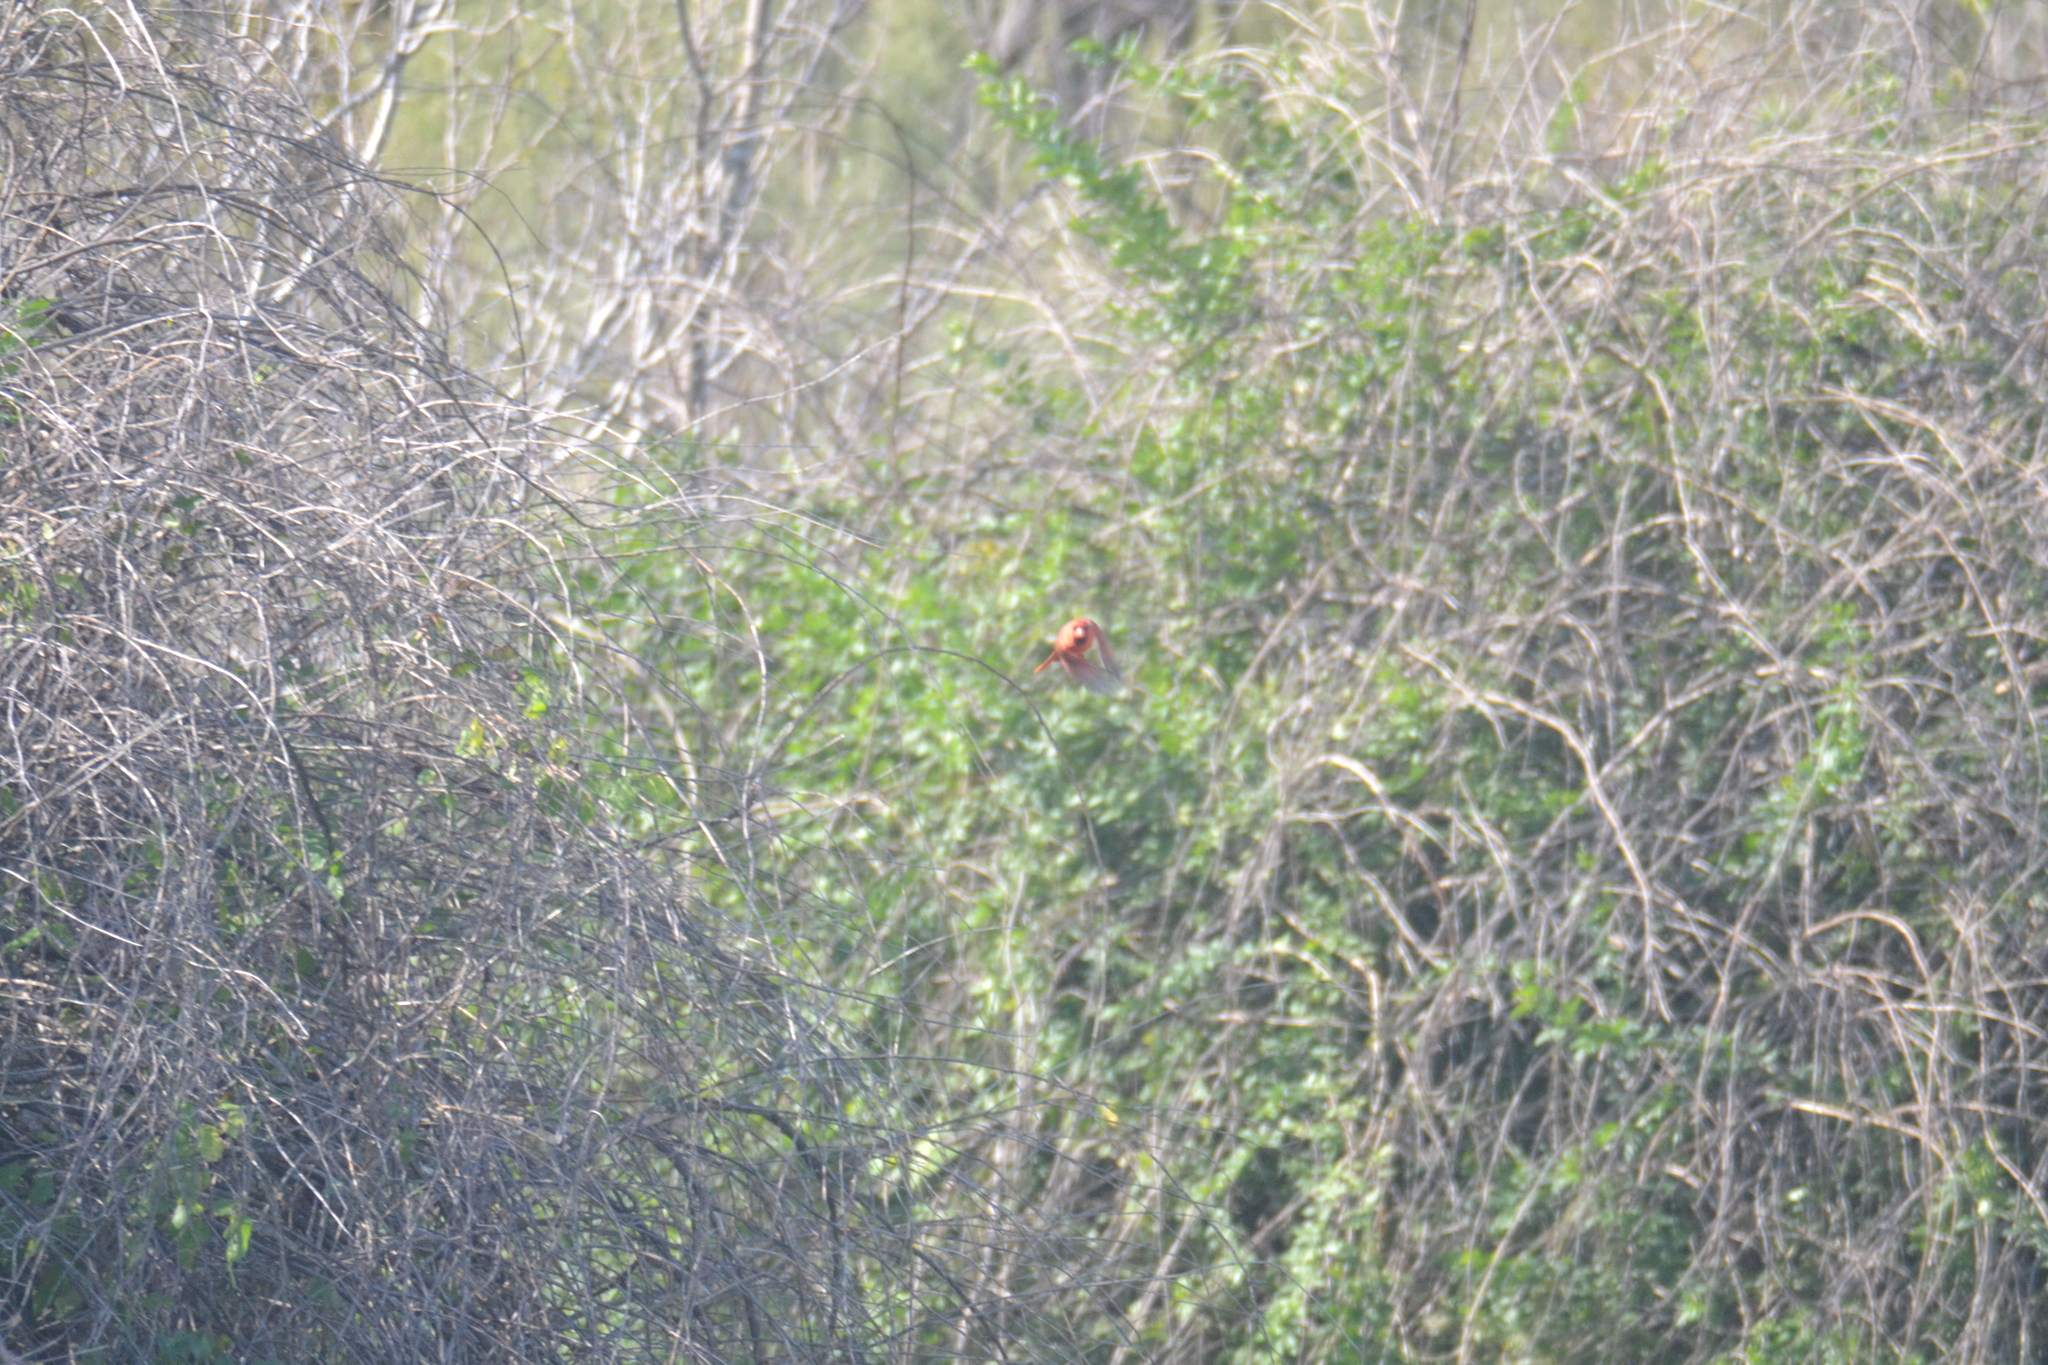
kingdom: Animalia
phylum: Chordata
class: Aves
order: Passeriformes
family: Cardinalidae
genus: Cardinalis
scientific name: Cardinalis cardinalis
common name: Northern cardinal
